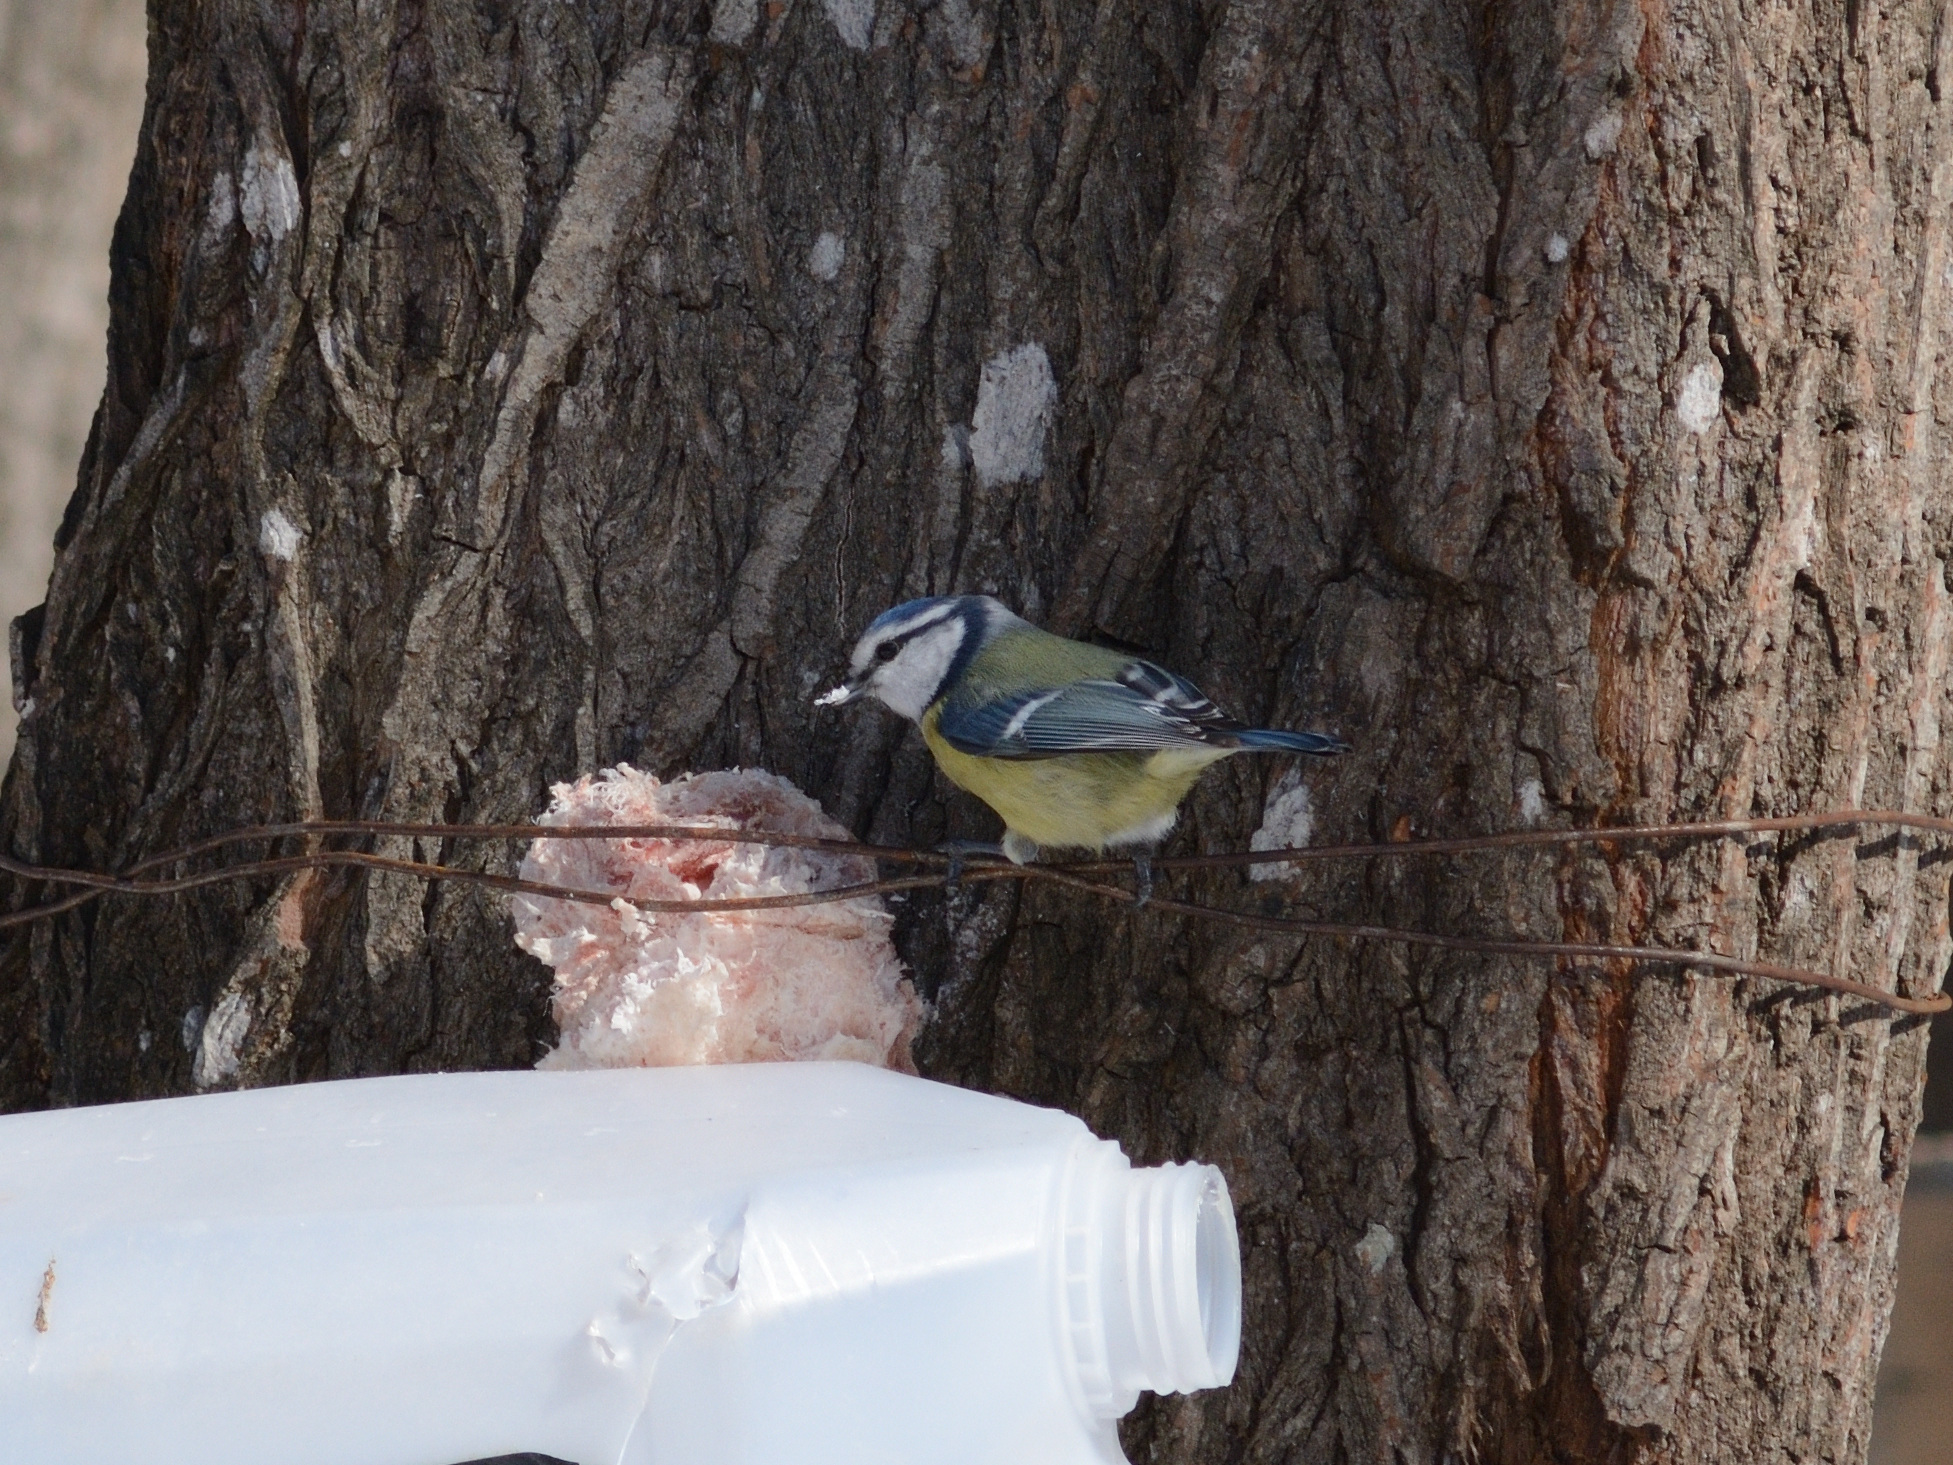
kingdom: Animalia
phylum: Chordata
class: Aves
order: Passeriformes
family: Paridae
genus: Cyanistes
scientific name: Cyanistes caeruleus
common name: Eurasian blue tit
